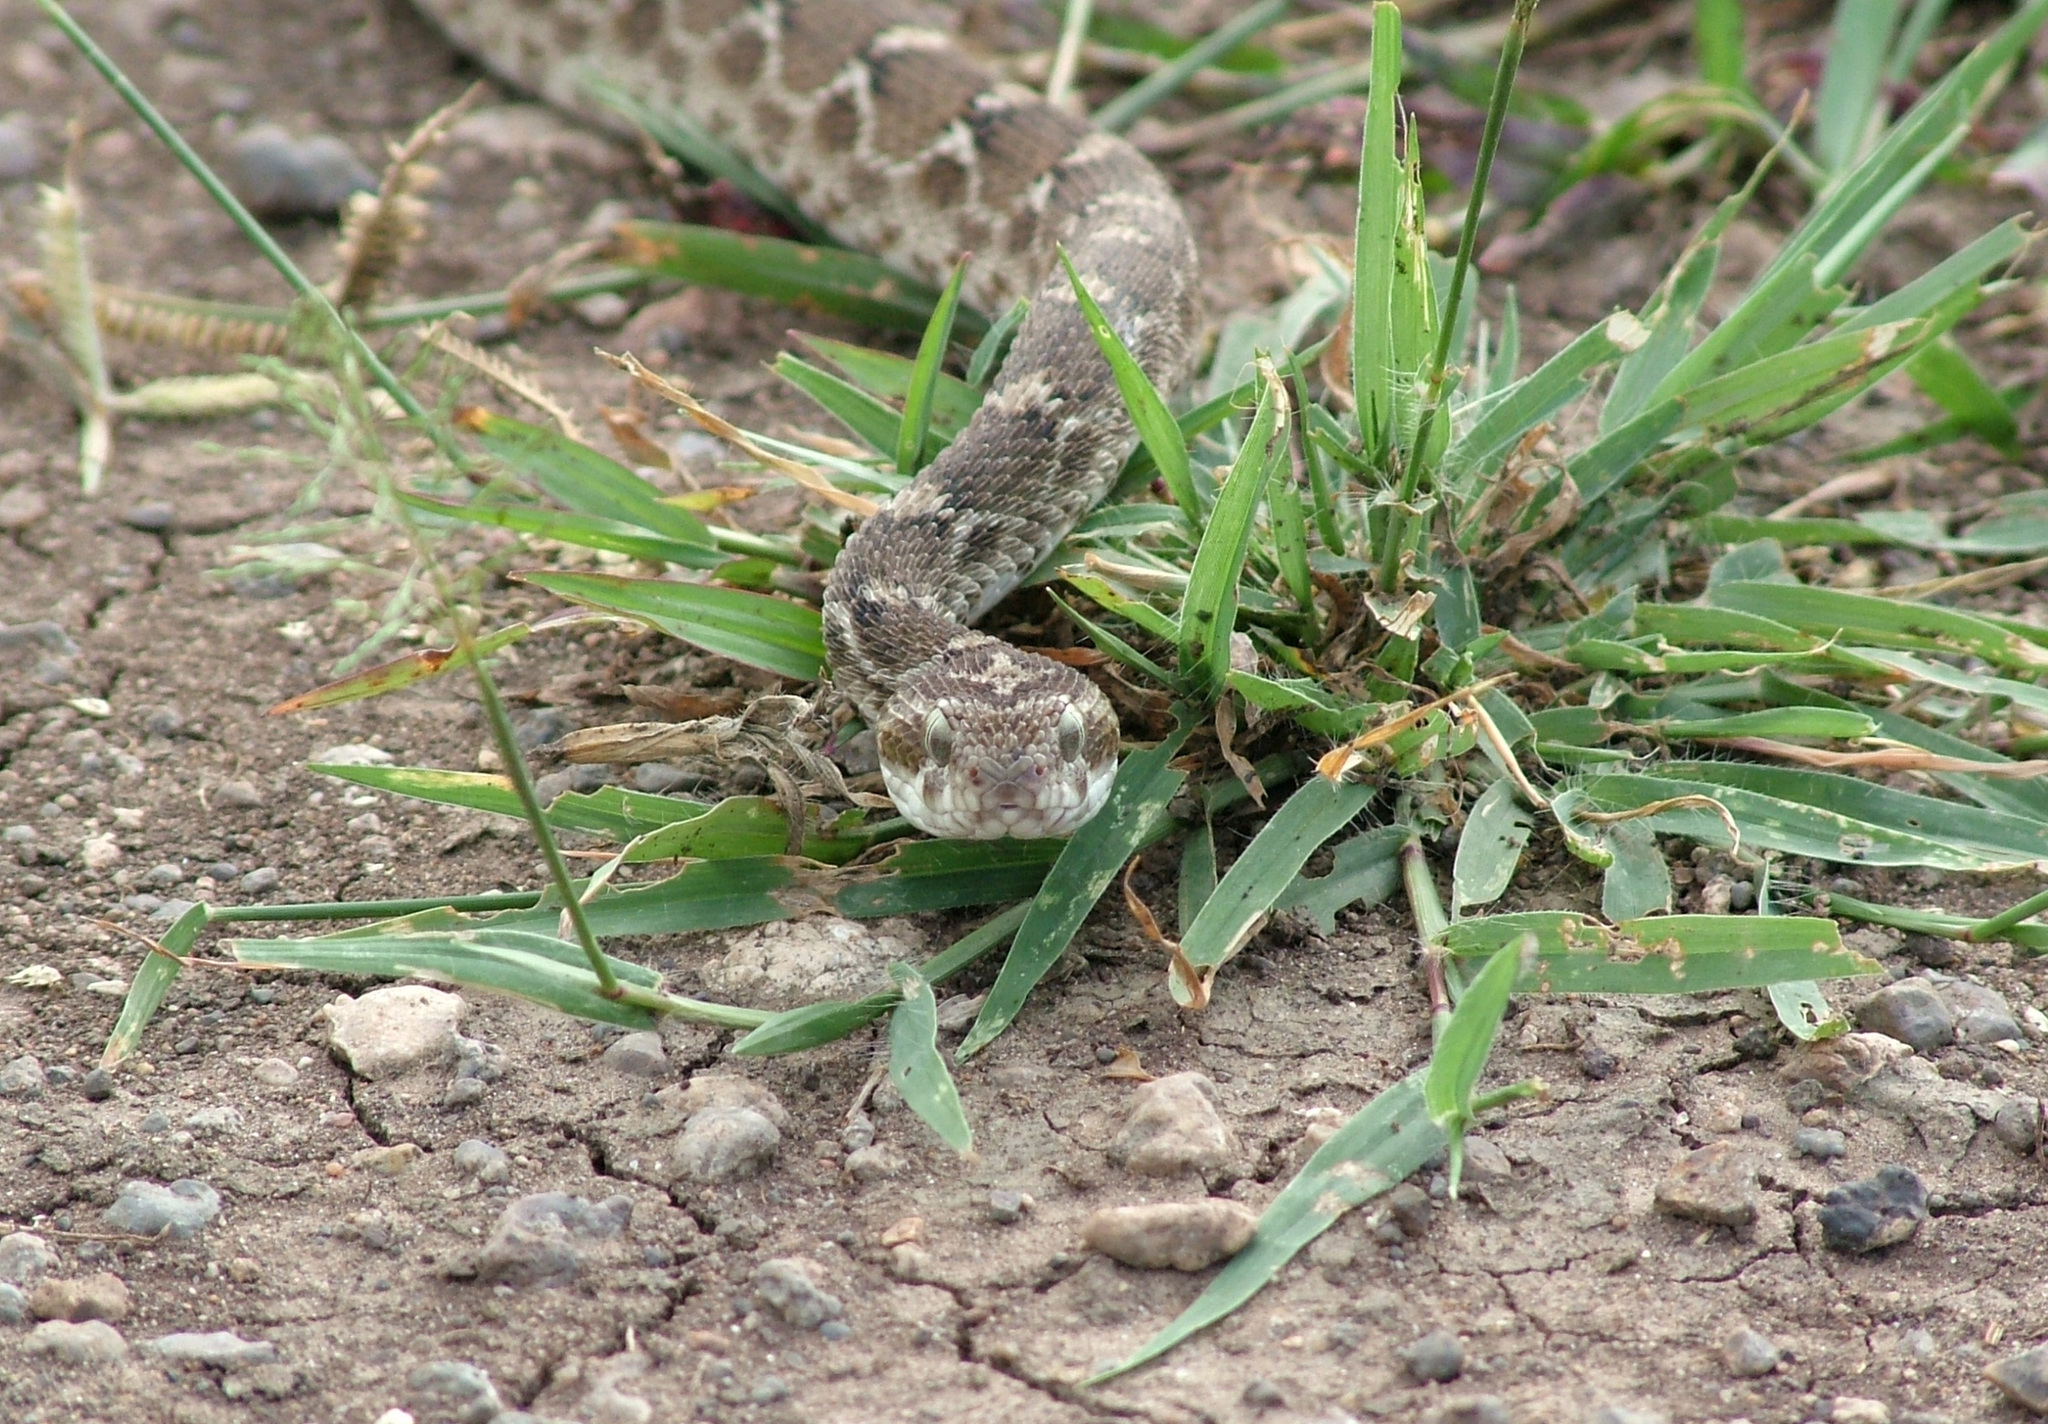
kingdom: Animalia
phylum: Chordata
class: Squamata
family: Viperidae
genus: Echis
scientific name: Echis carinatus
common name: Saw-scaled viper
